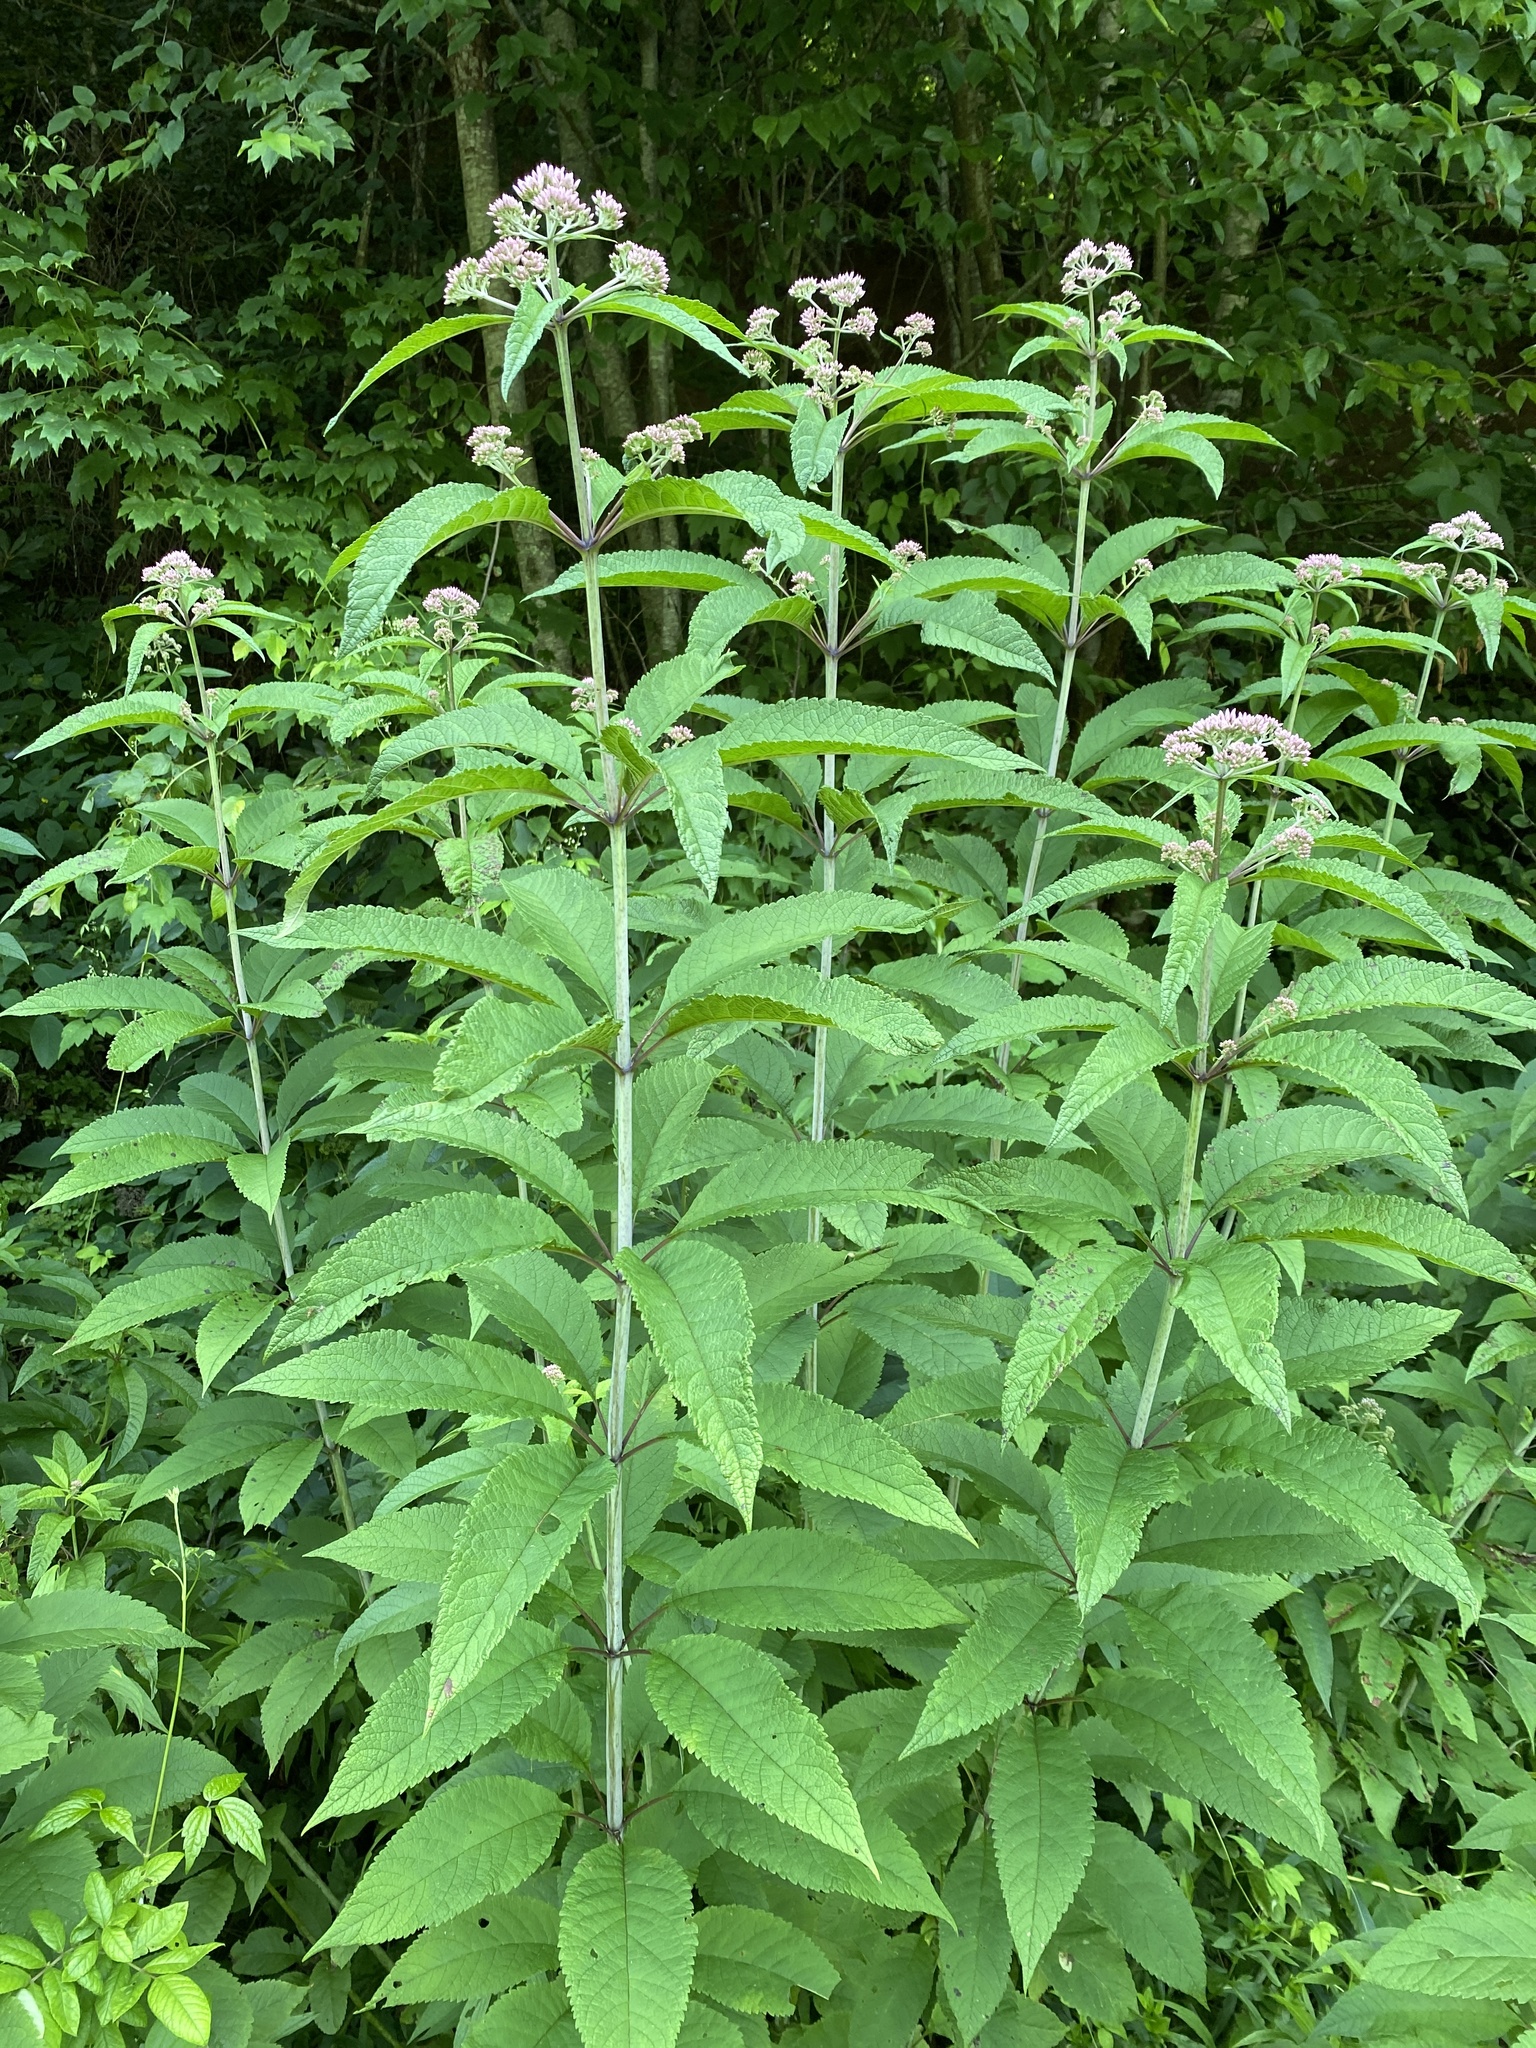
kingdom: Plantae
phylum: Tracheophyta
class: Magnoliopsida
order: Asterales
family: Asteraceae
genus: Eutrochium
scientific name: Eutrochium fistulosum
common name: Trumpetweed
